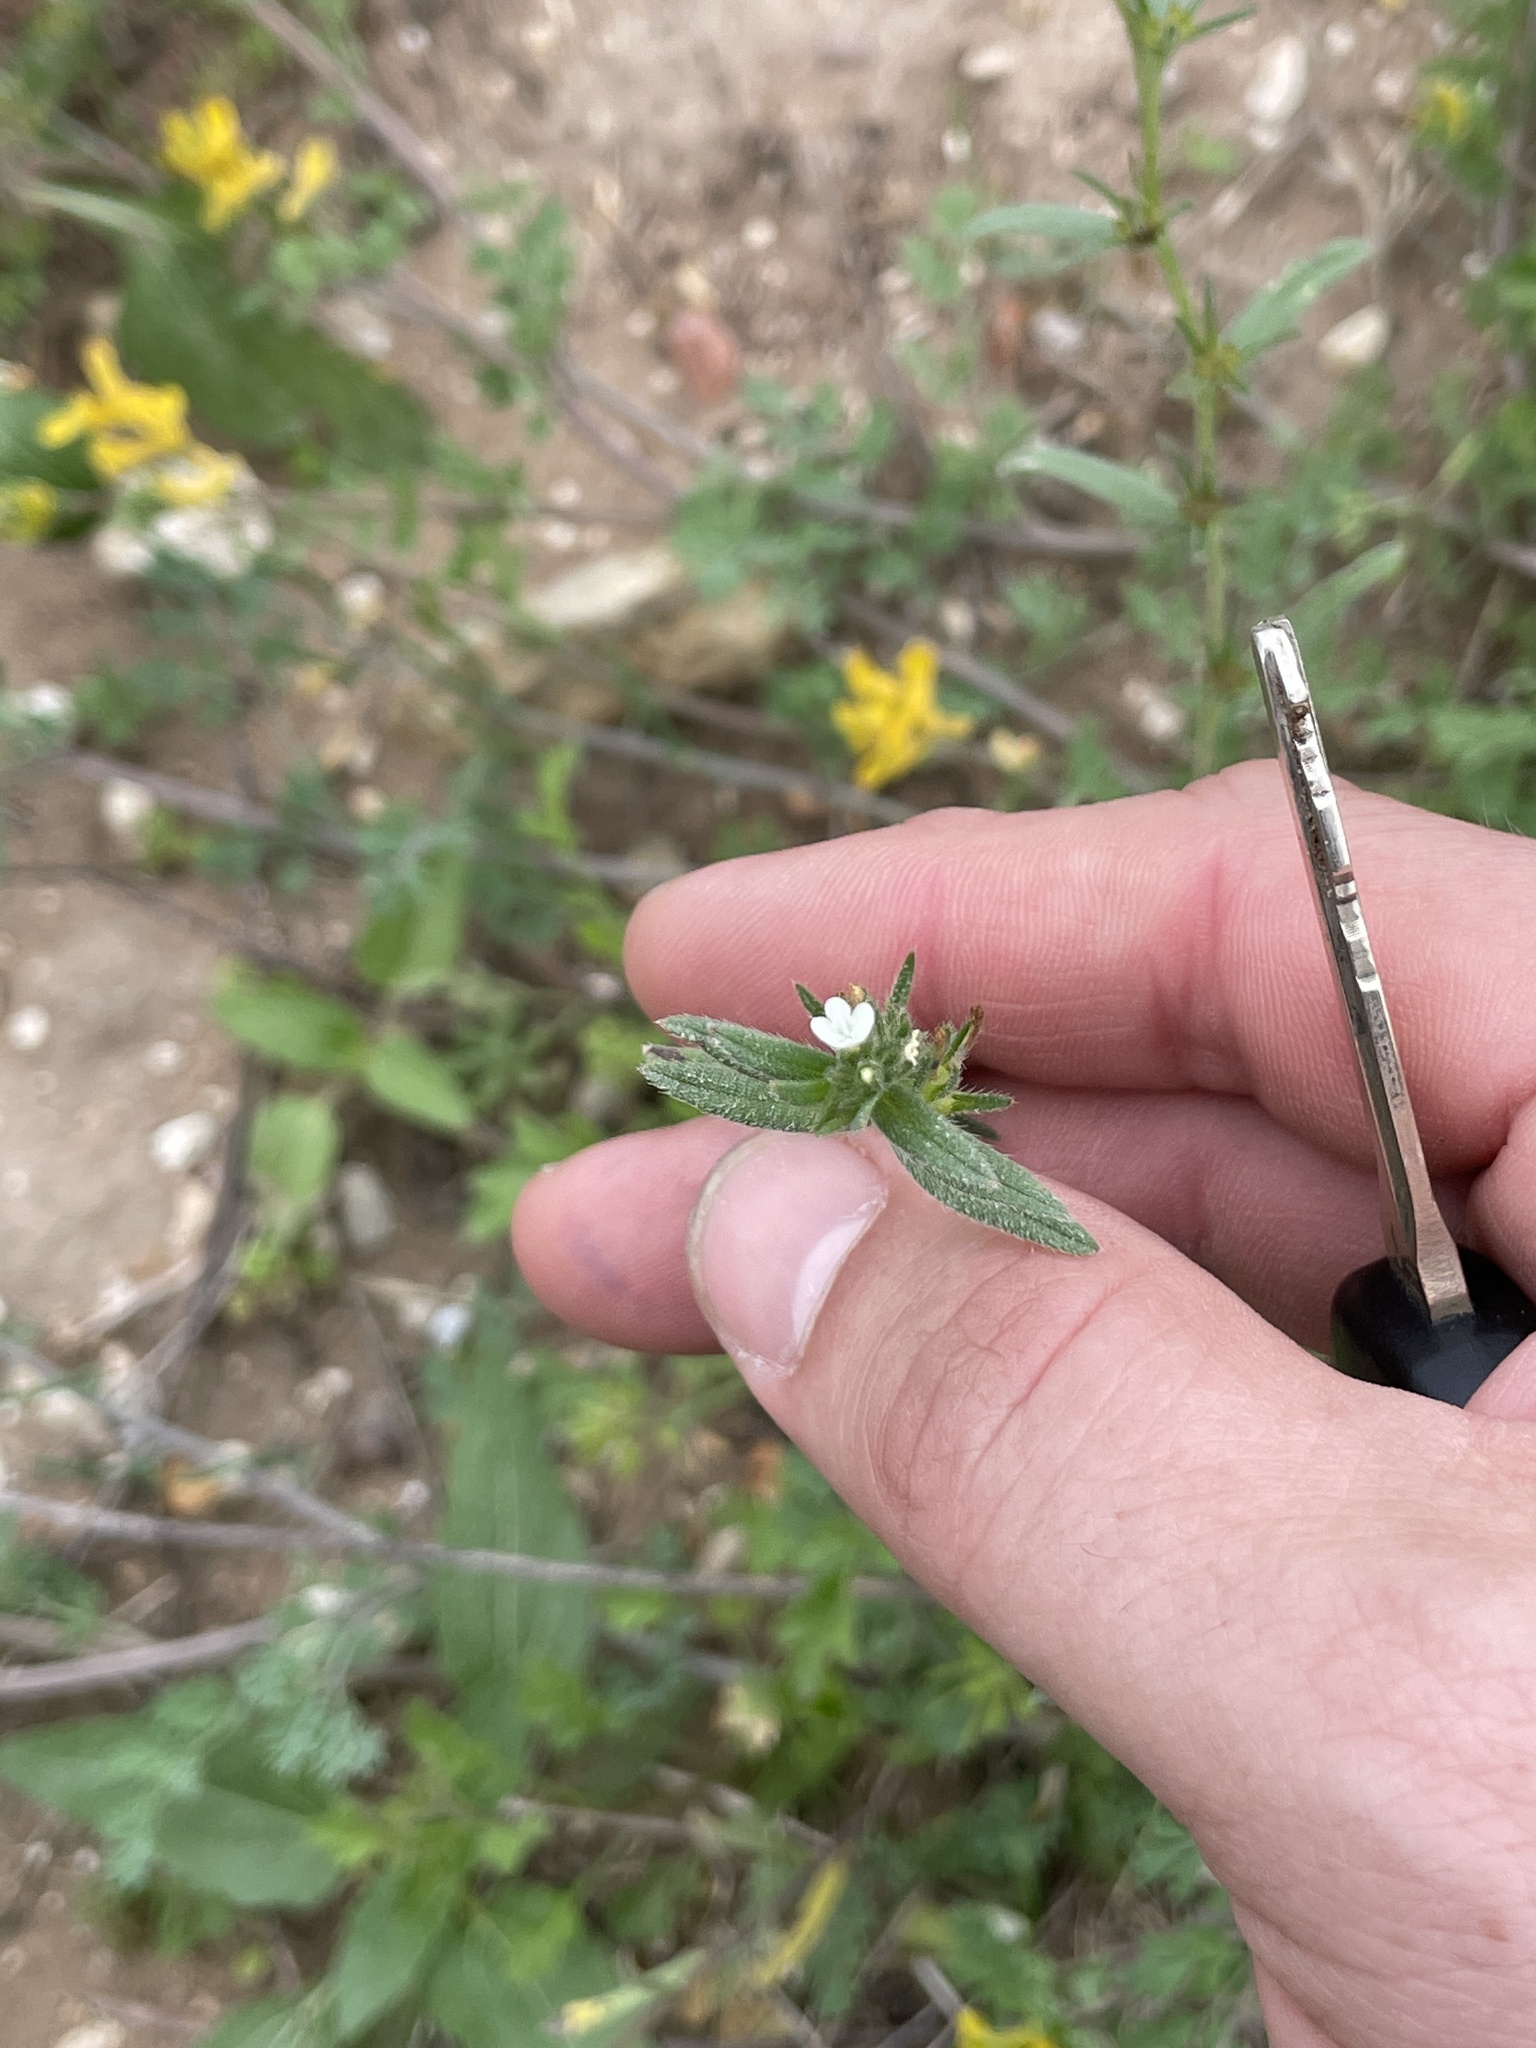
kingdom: Plantae
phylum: Tracheophyta
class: Magnoliopsida
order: Boraginales
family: Boraginaceae
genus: Buglossoides
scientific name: Buglossoides arvensis
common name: Corn gromwell
